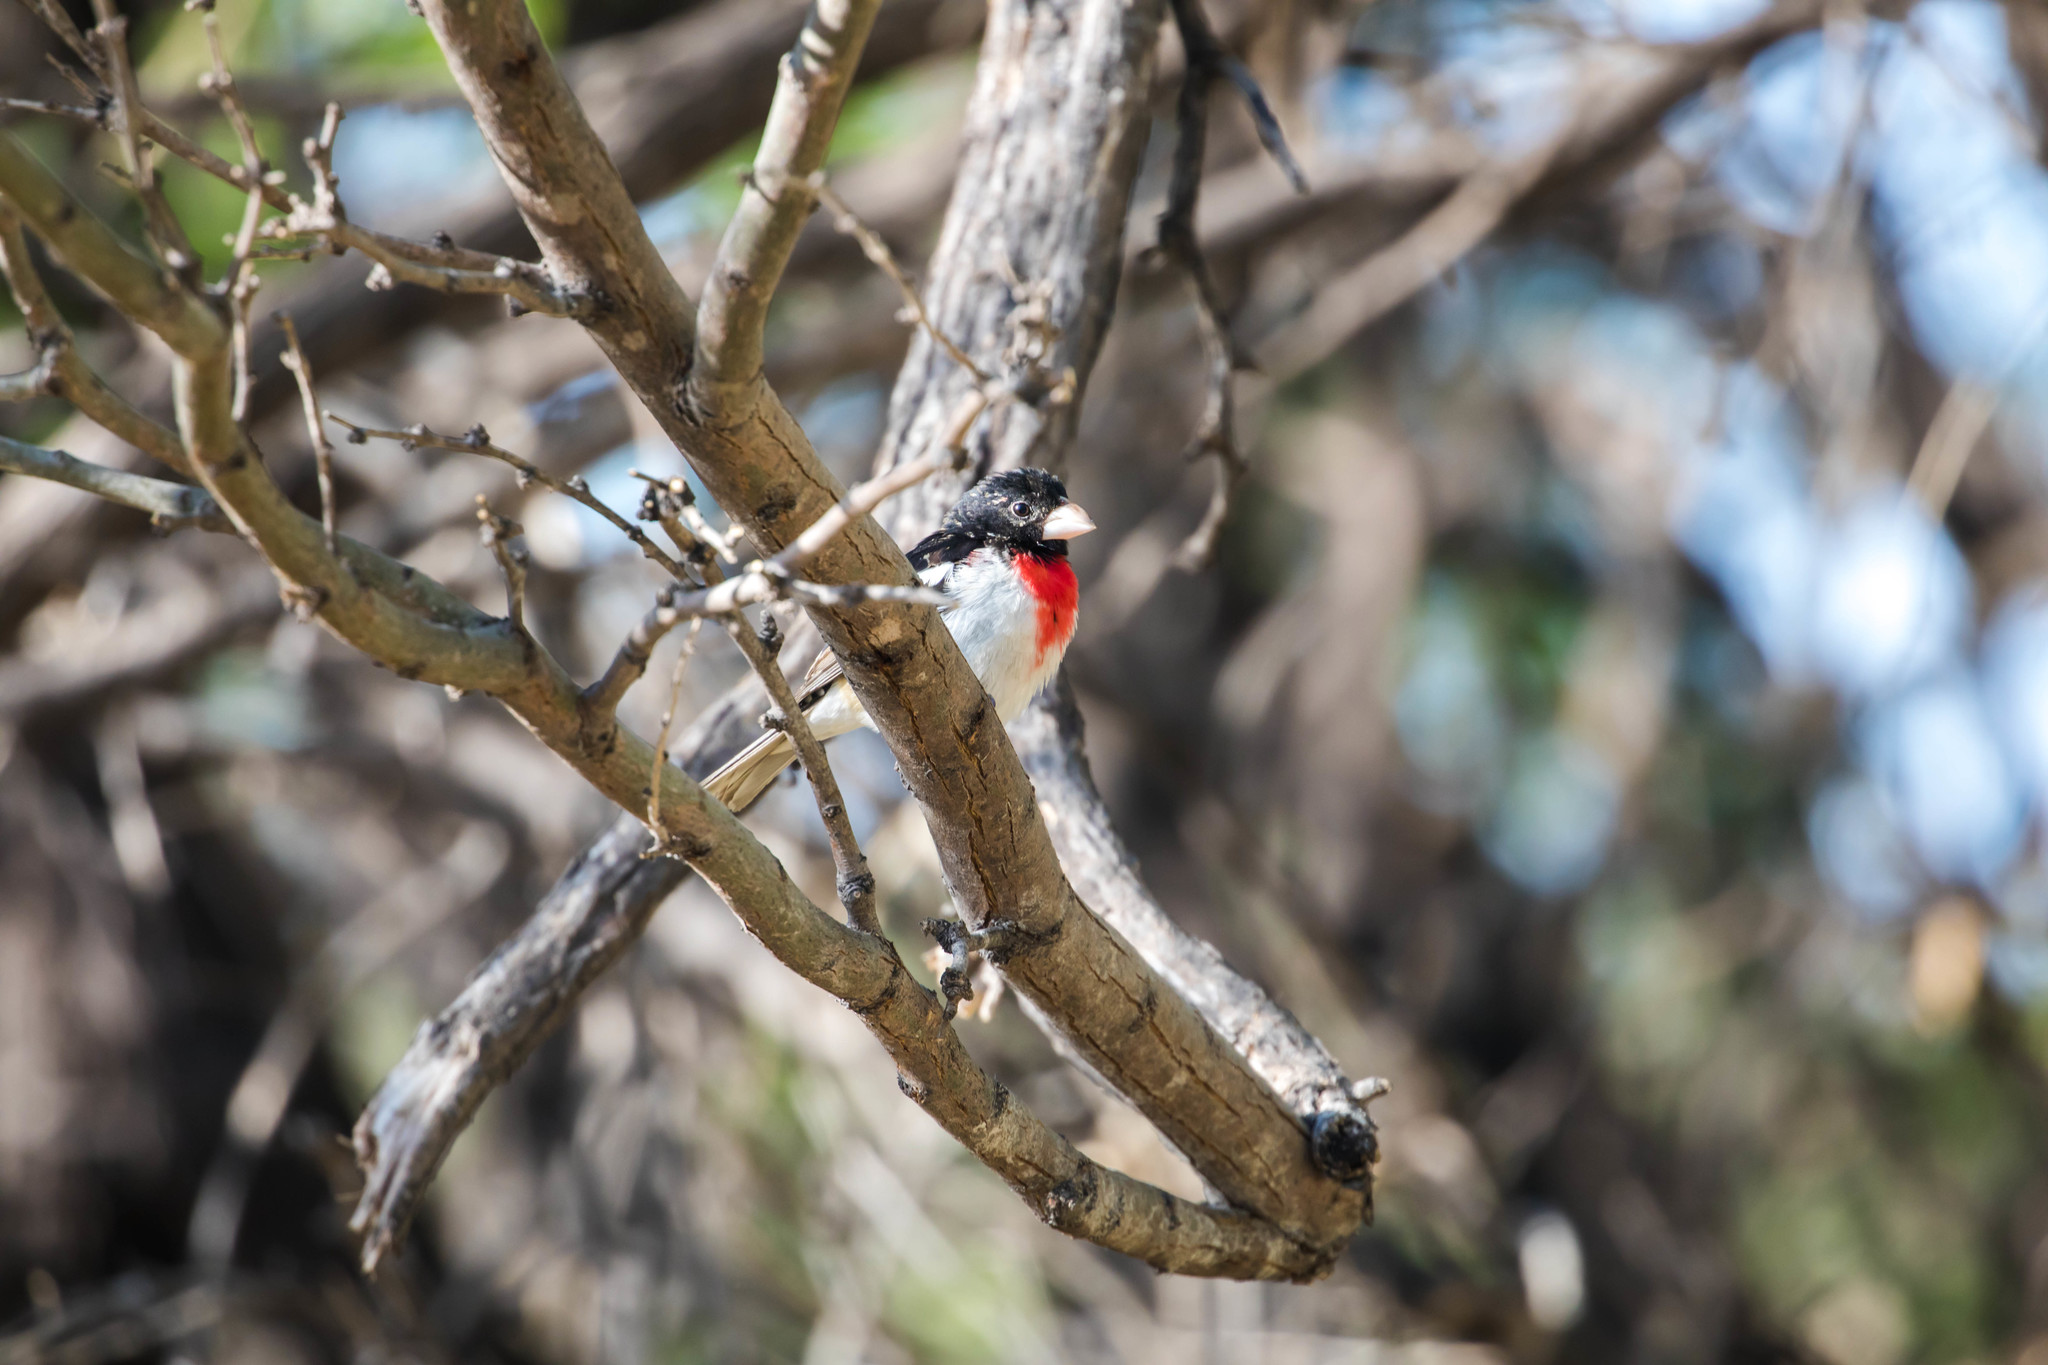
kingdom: Animalia
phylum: Chordata
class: Aves
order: Passeriformes
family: Cardinalidae
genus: Pheucticus
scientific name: Pheucticus ludovicianus
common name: Rose-breasted grosbeak
